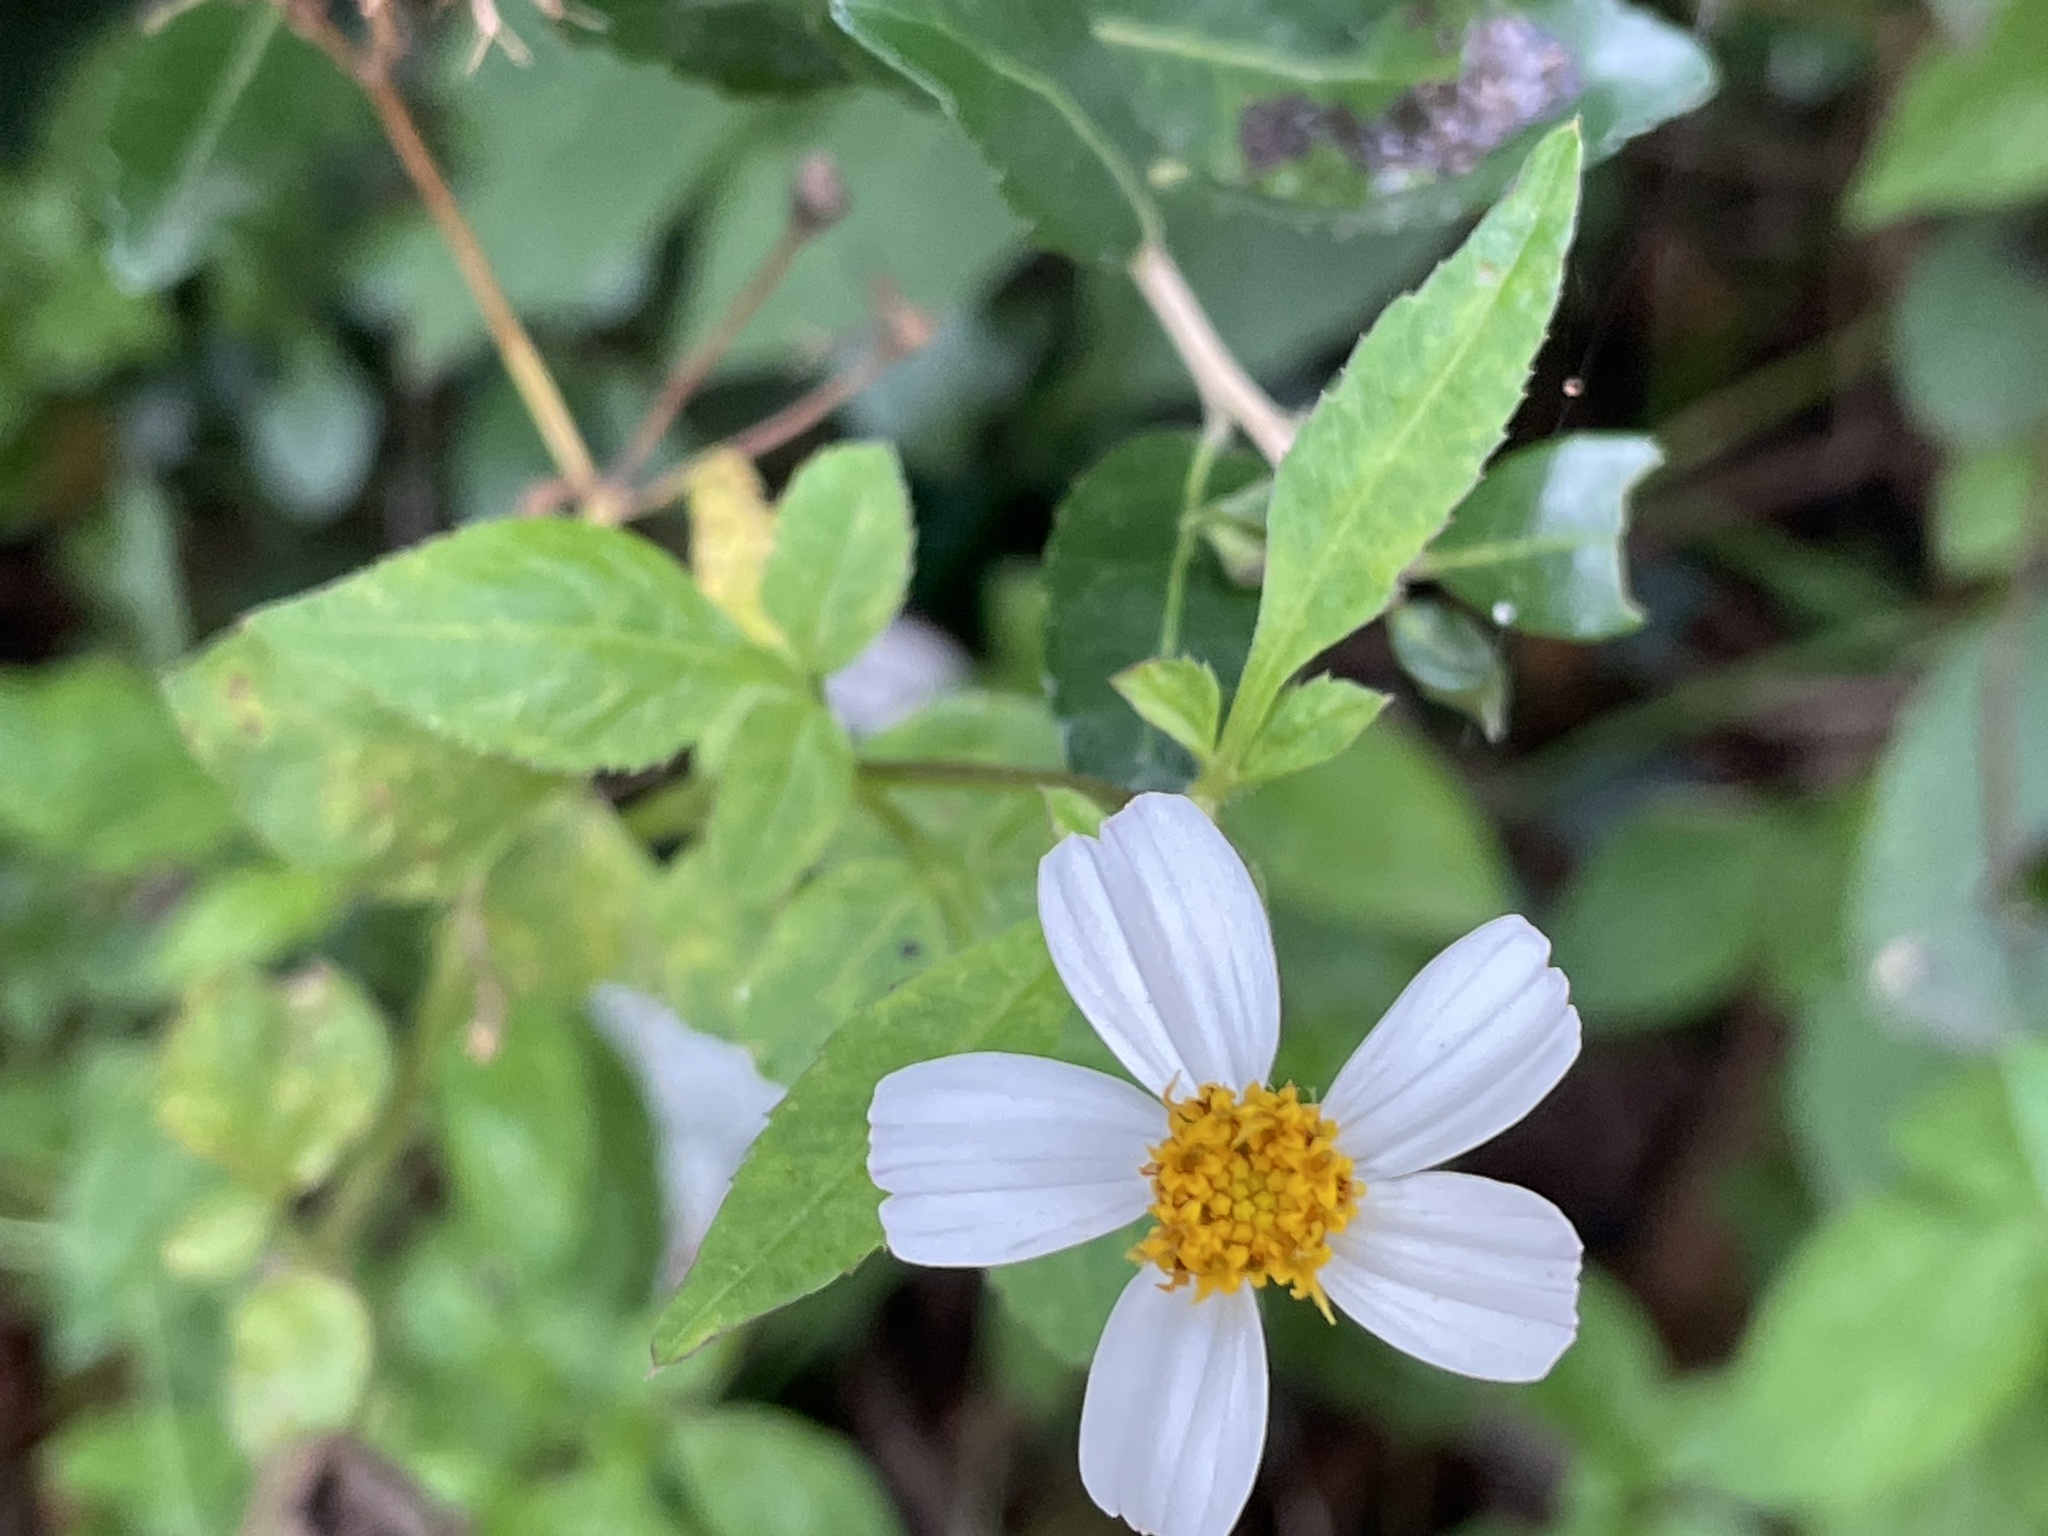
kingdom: Plantae
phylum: Tracheophyta
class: Magnoliopsida
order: Asterales
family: Asteraceae
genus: Bidens
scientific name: Bidens alba
